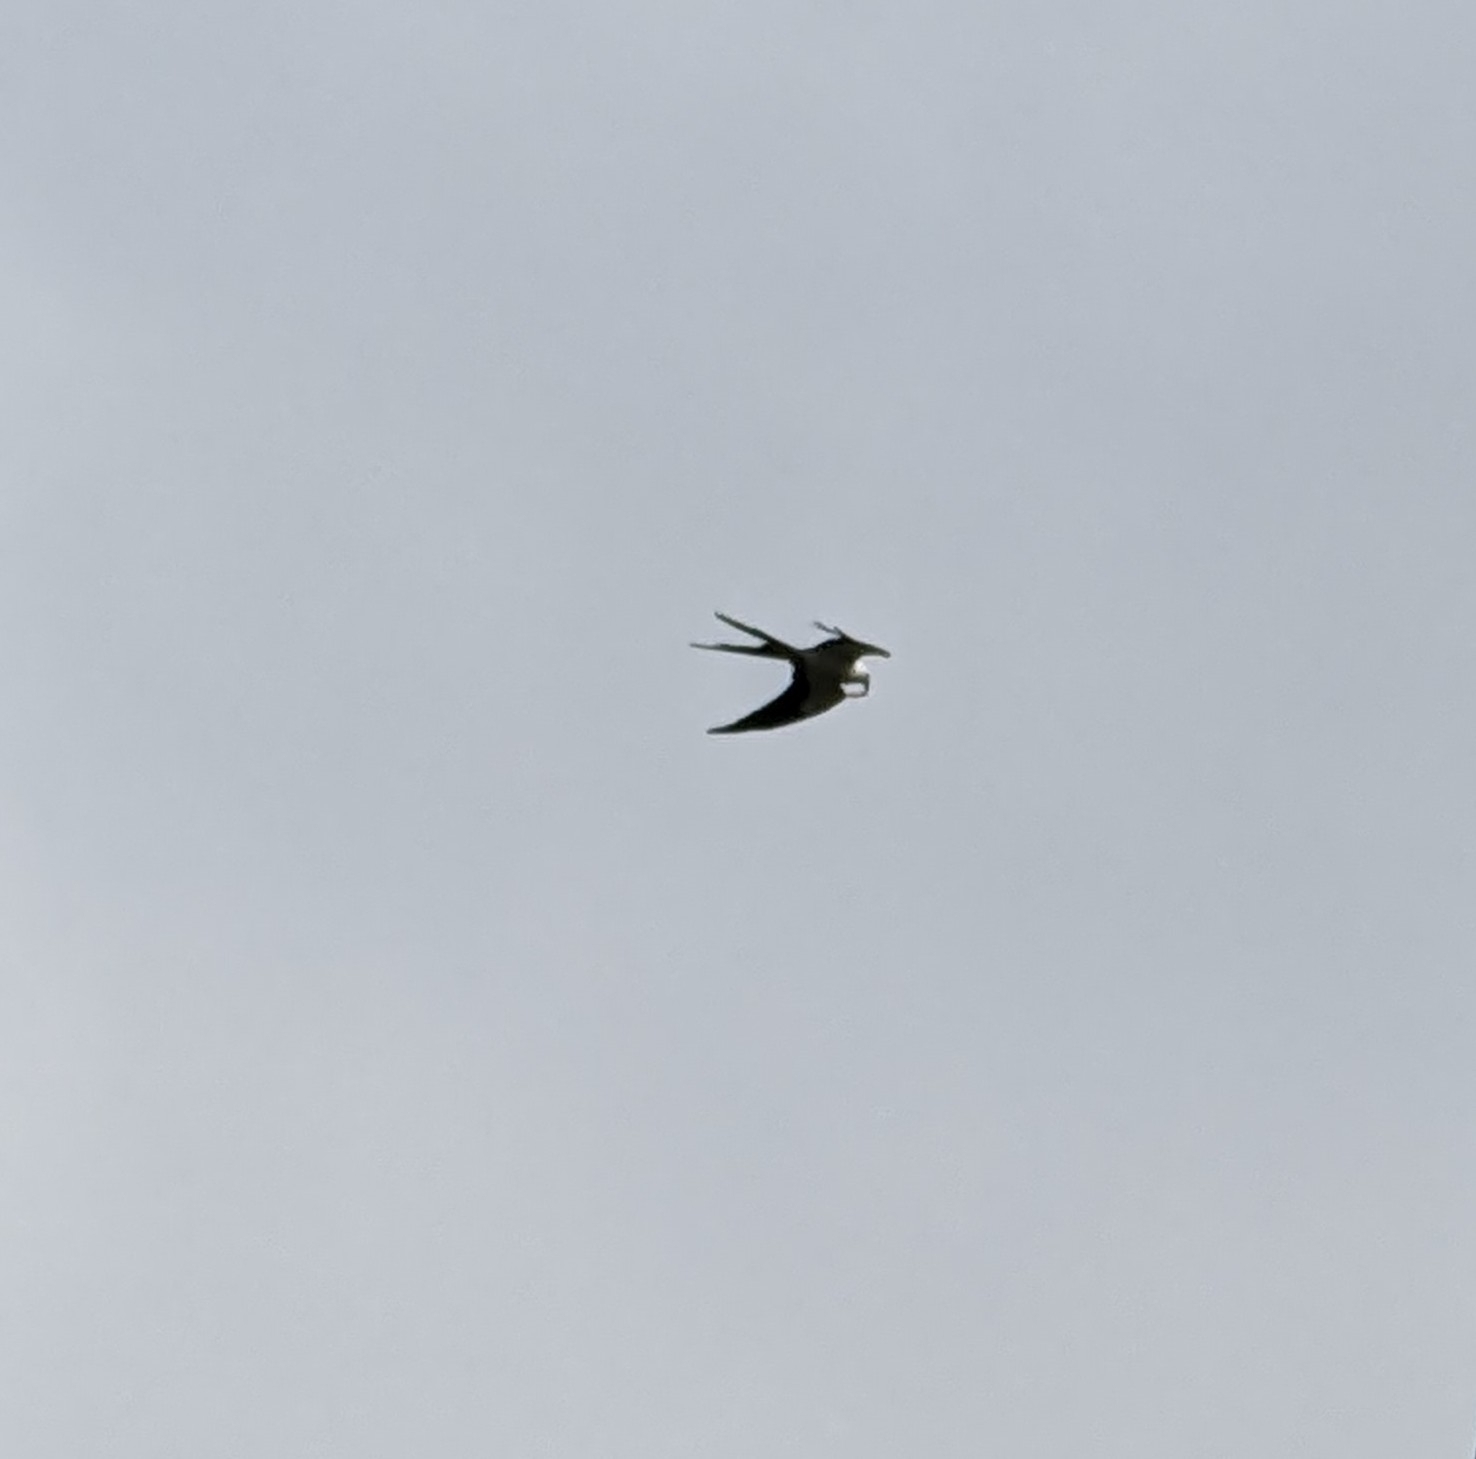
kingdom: Animalia
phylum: Chordata
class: Aves
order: Accipitriformes
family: Accipitridae
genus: Elanoides
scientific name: Elanoides forficatus
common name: Swallow-tailed kite
